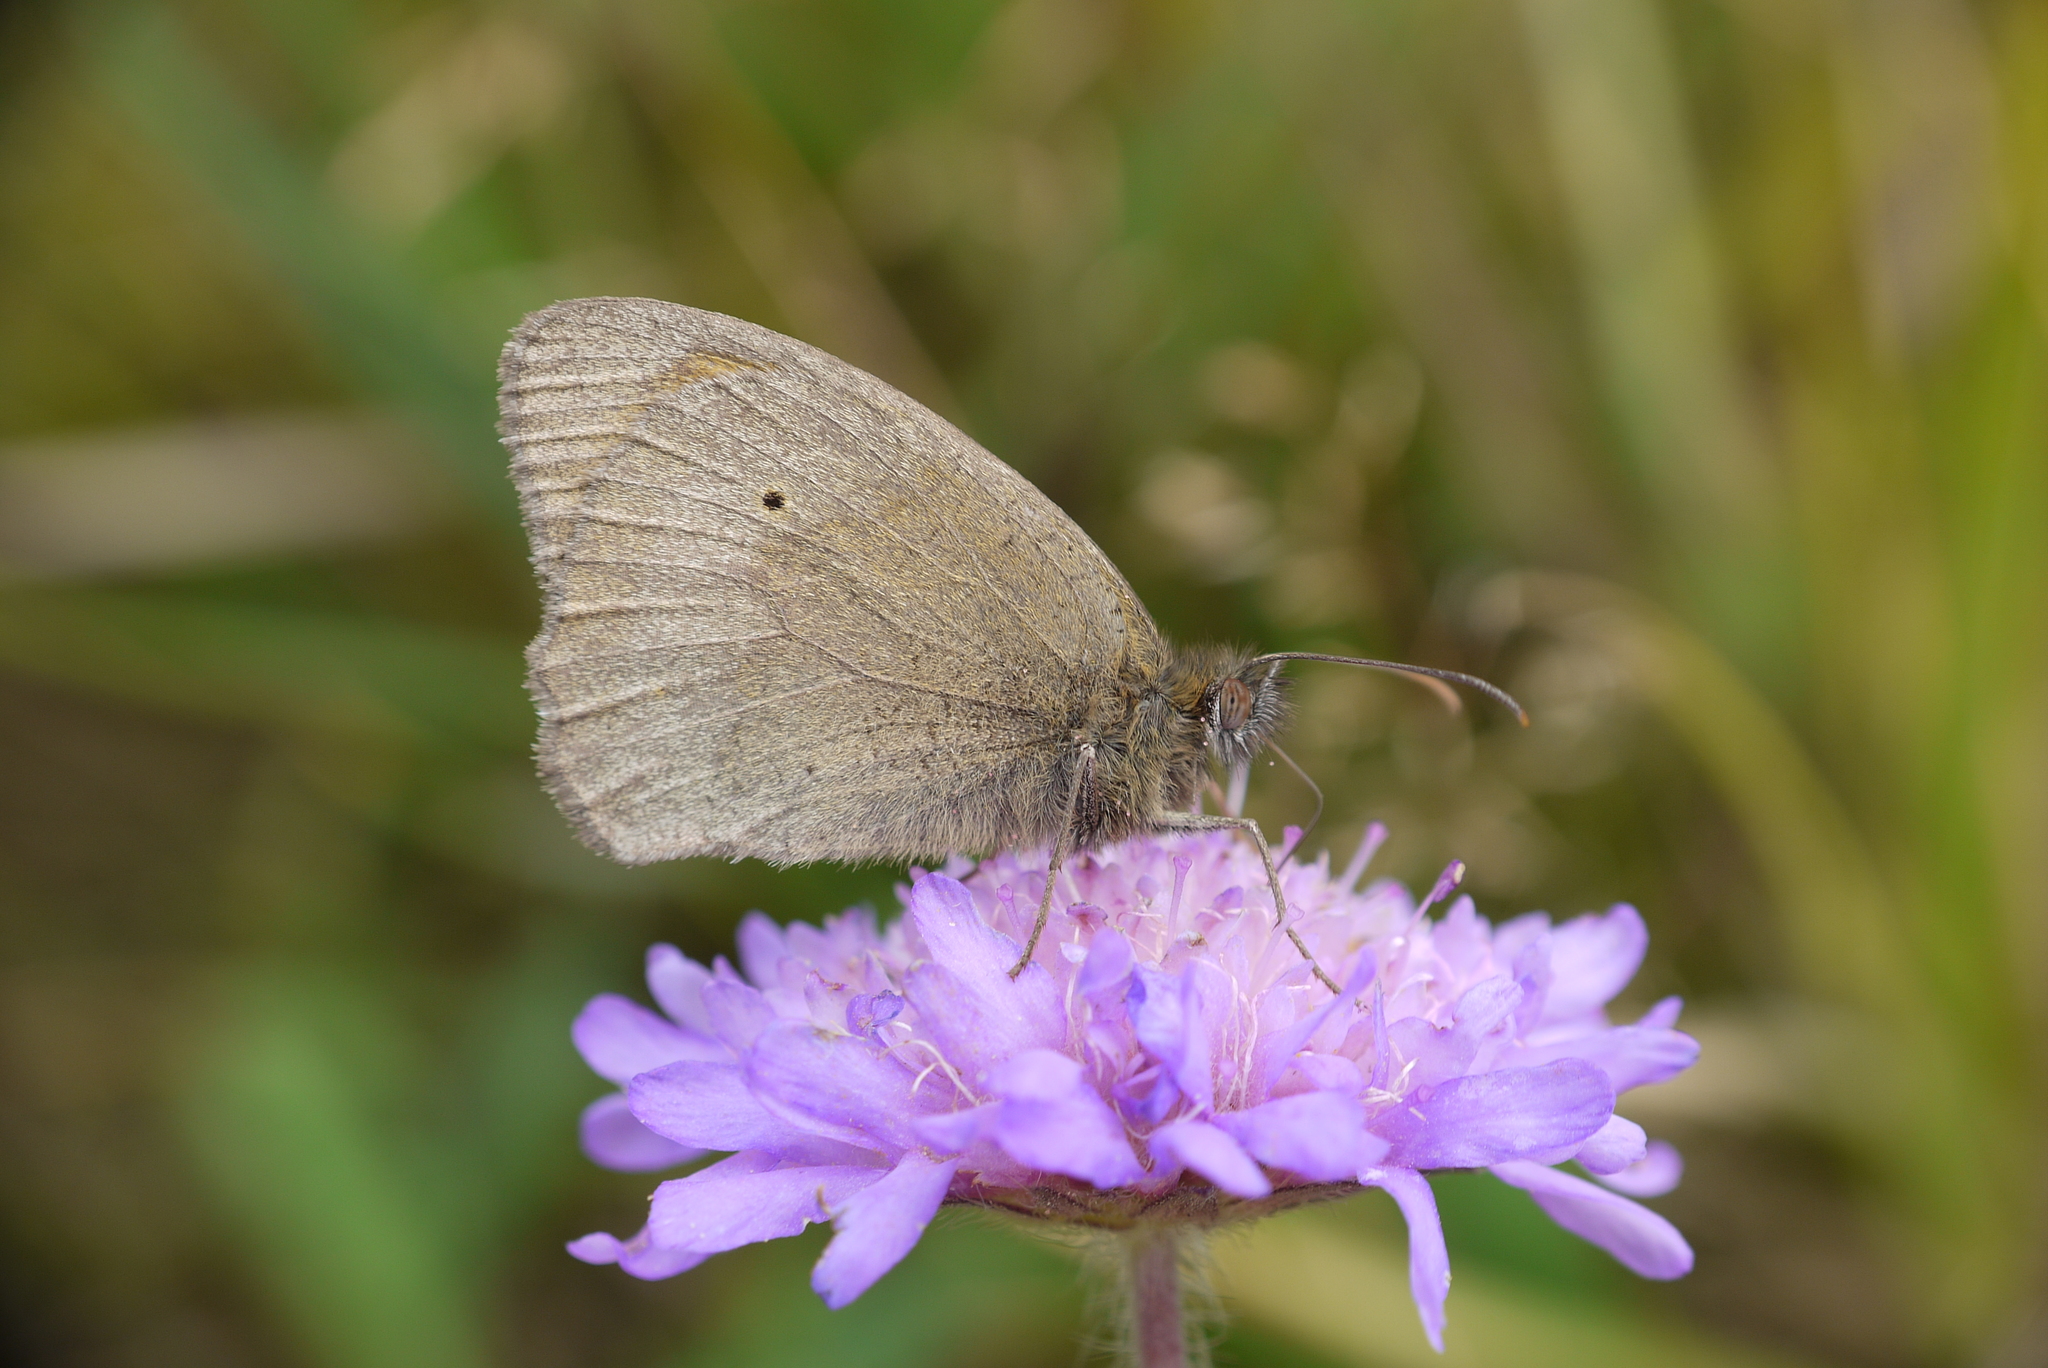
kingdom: Animalia
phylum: Arthropoda
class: Insecta
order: Lepidoptera
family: Nymphalidae
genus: Maniola
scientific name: Maniola jurtina
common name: Meadow brown
